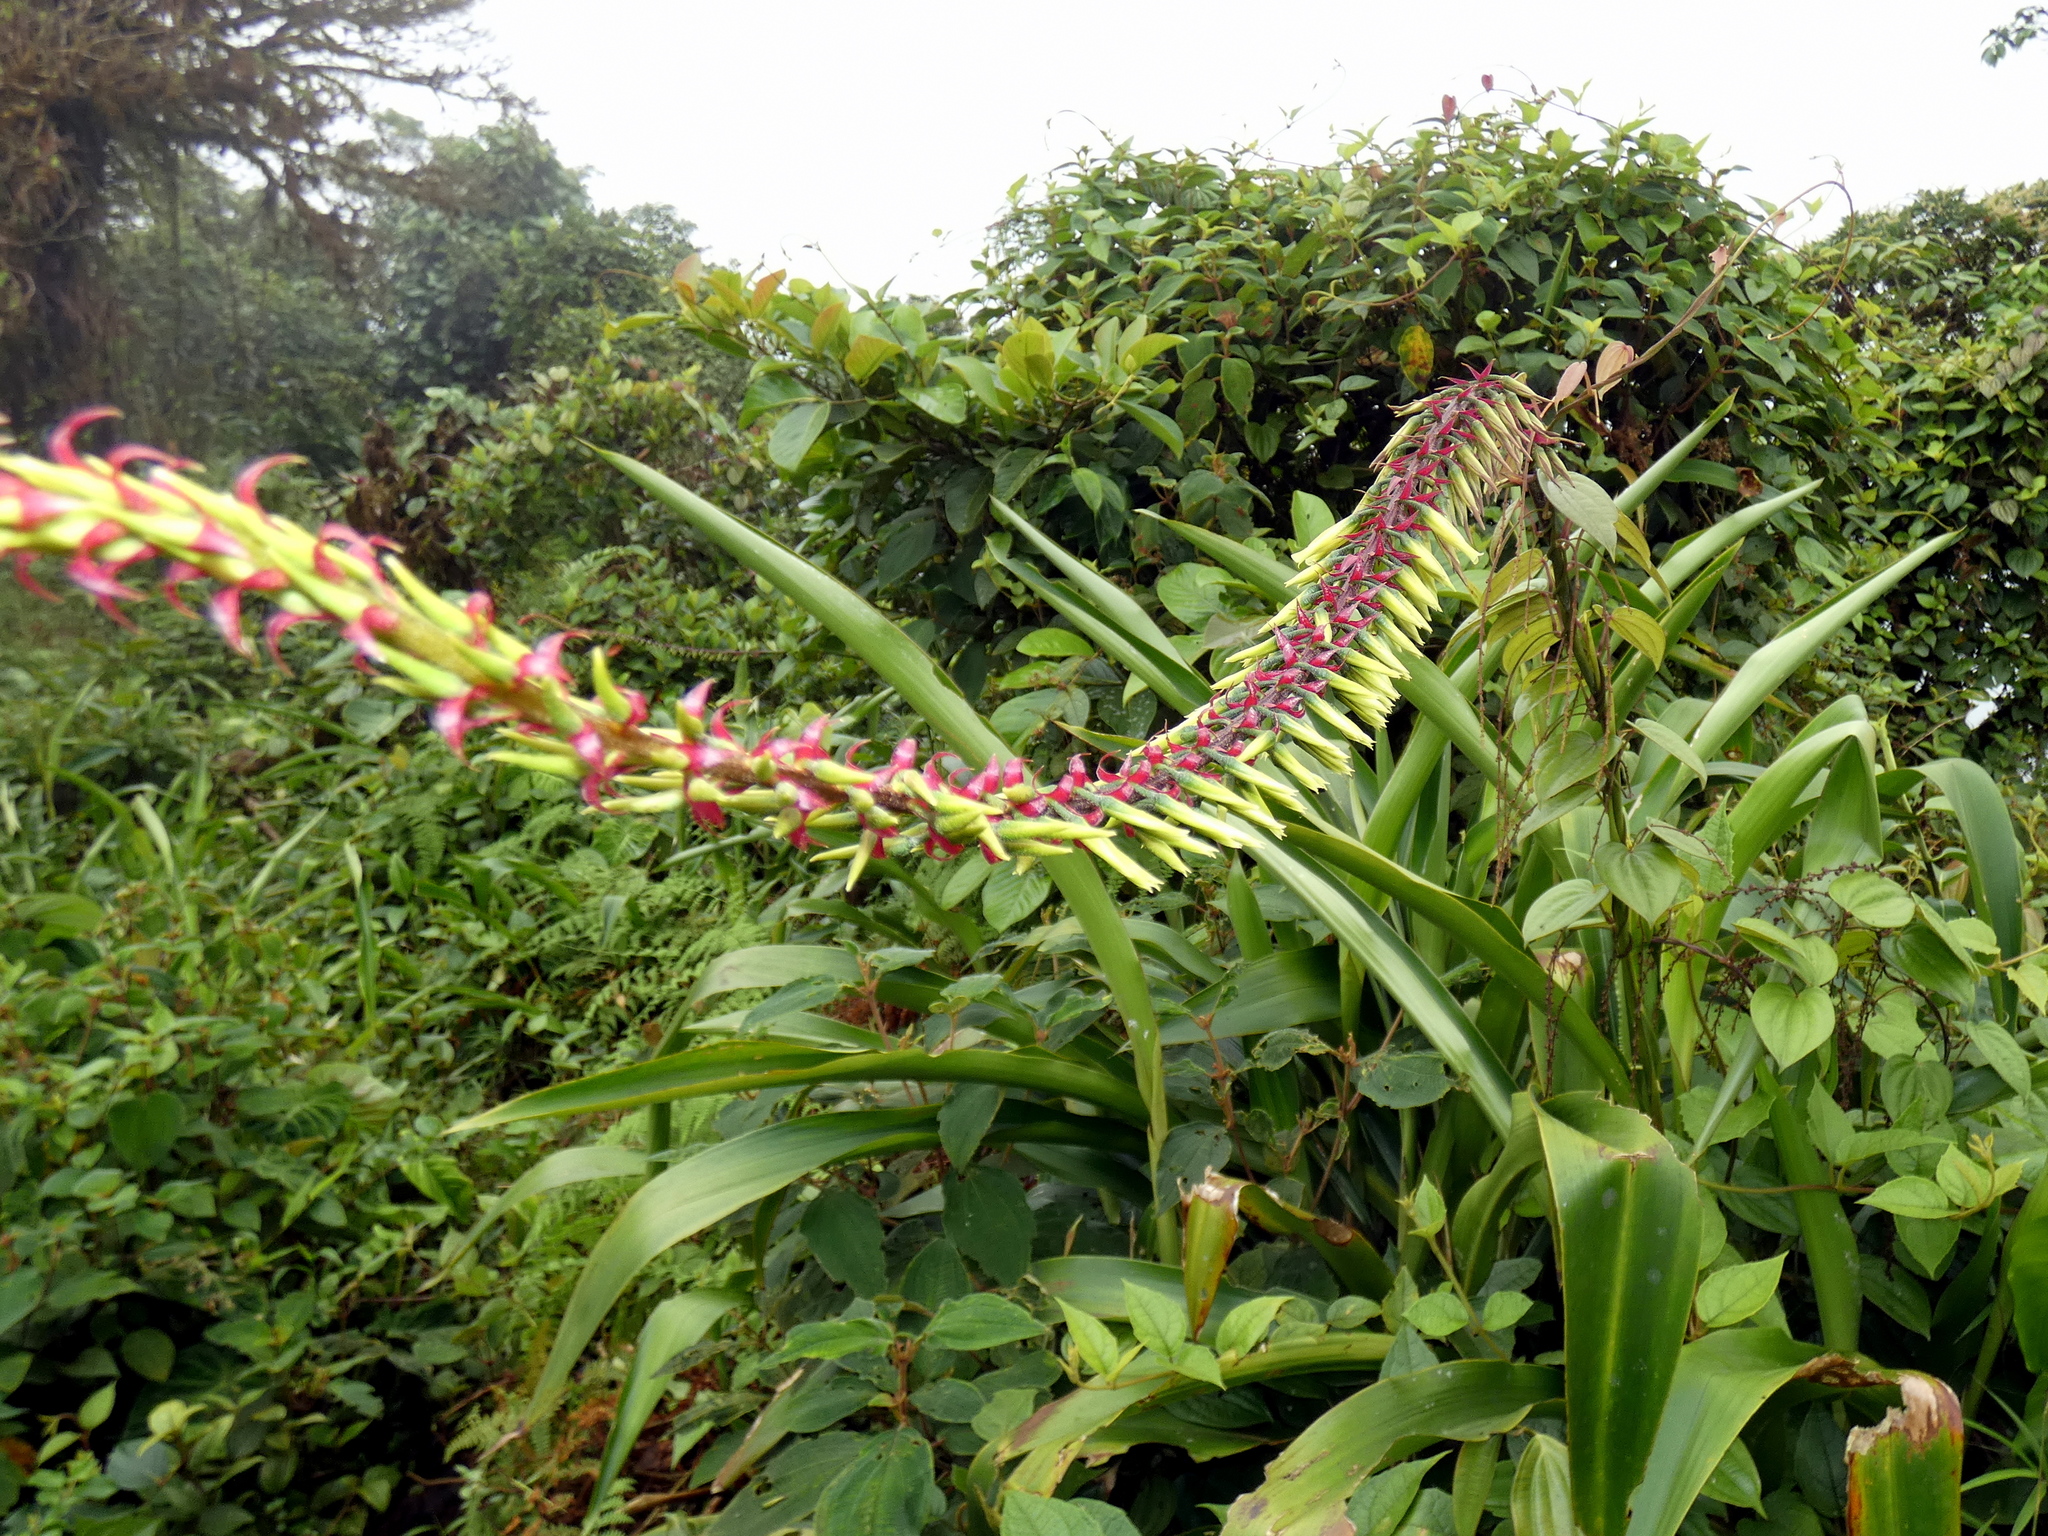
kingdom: Plantae
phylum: Tracheophyta
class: Liliopsida
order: Poales
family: Bromeliaceae
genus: Pitcairnia
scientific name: Pitcairnia multiflora
